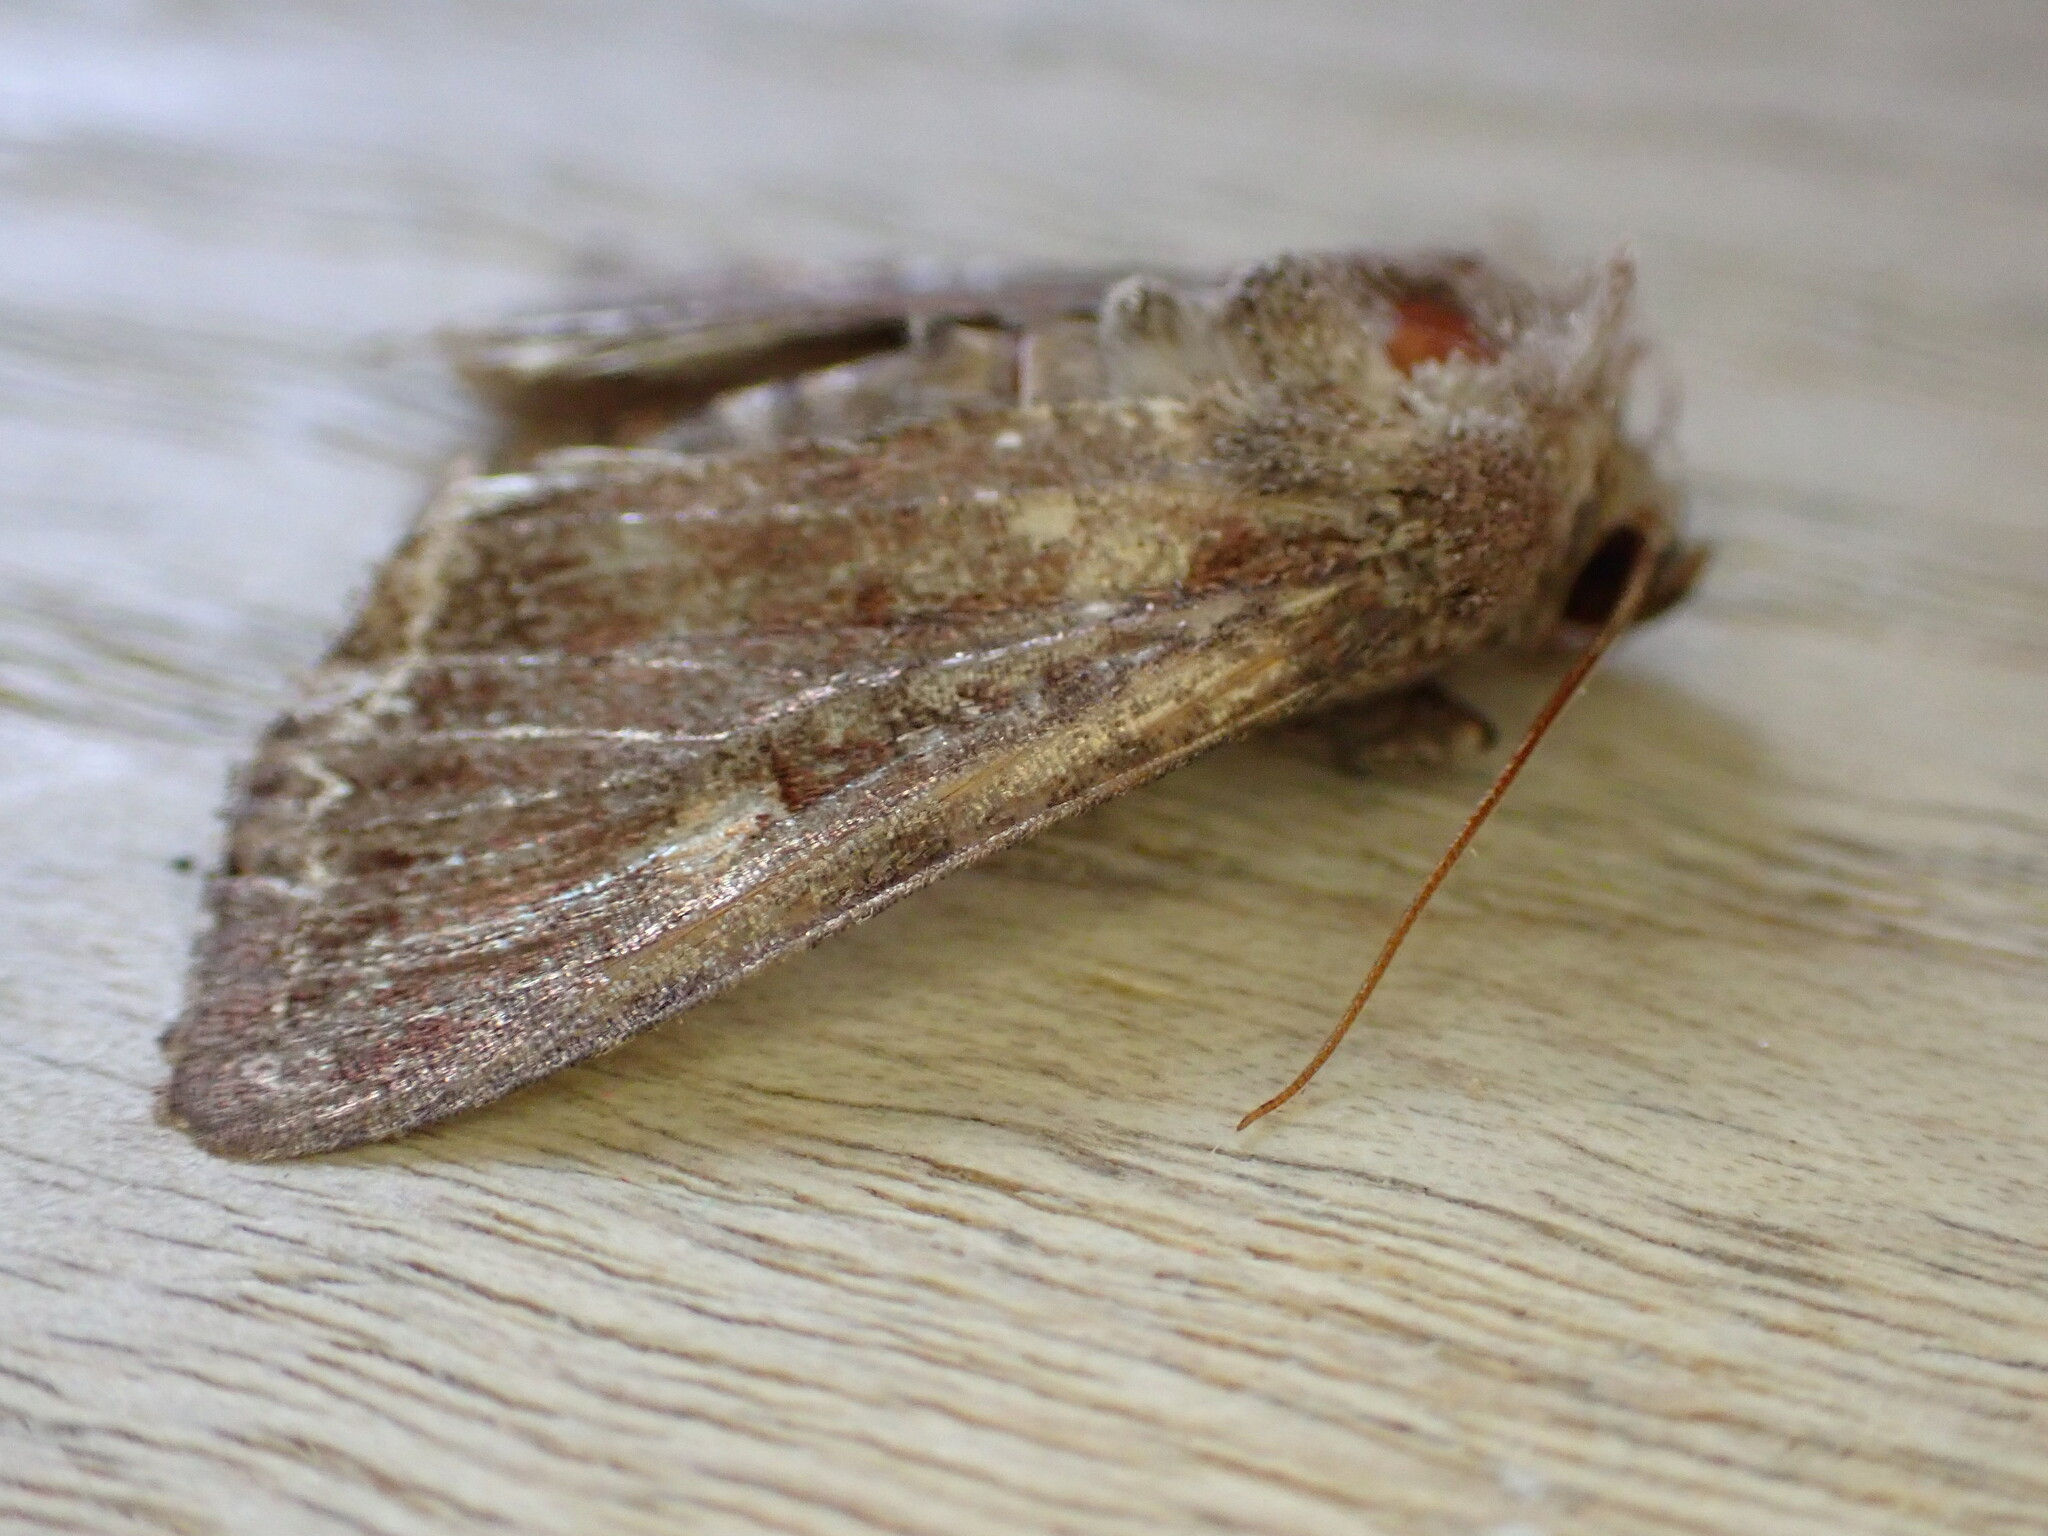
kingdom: Animalia
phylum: Arthropoda
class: Insecta
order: Lepidoptera
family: Noctuidae
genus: Lacanobia
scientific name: Lacanobia oleracea
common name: Bright-line brown-eye
